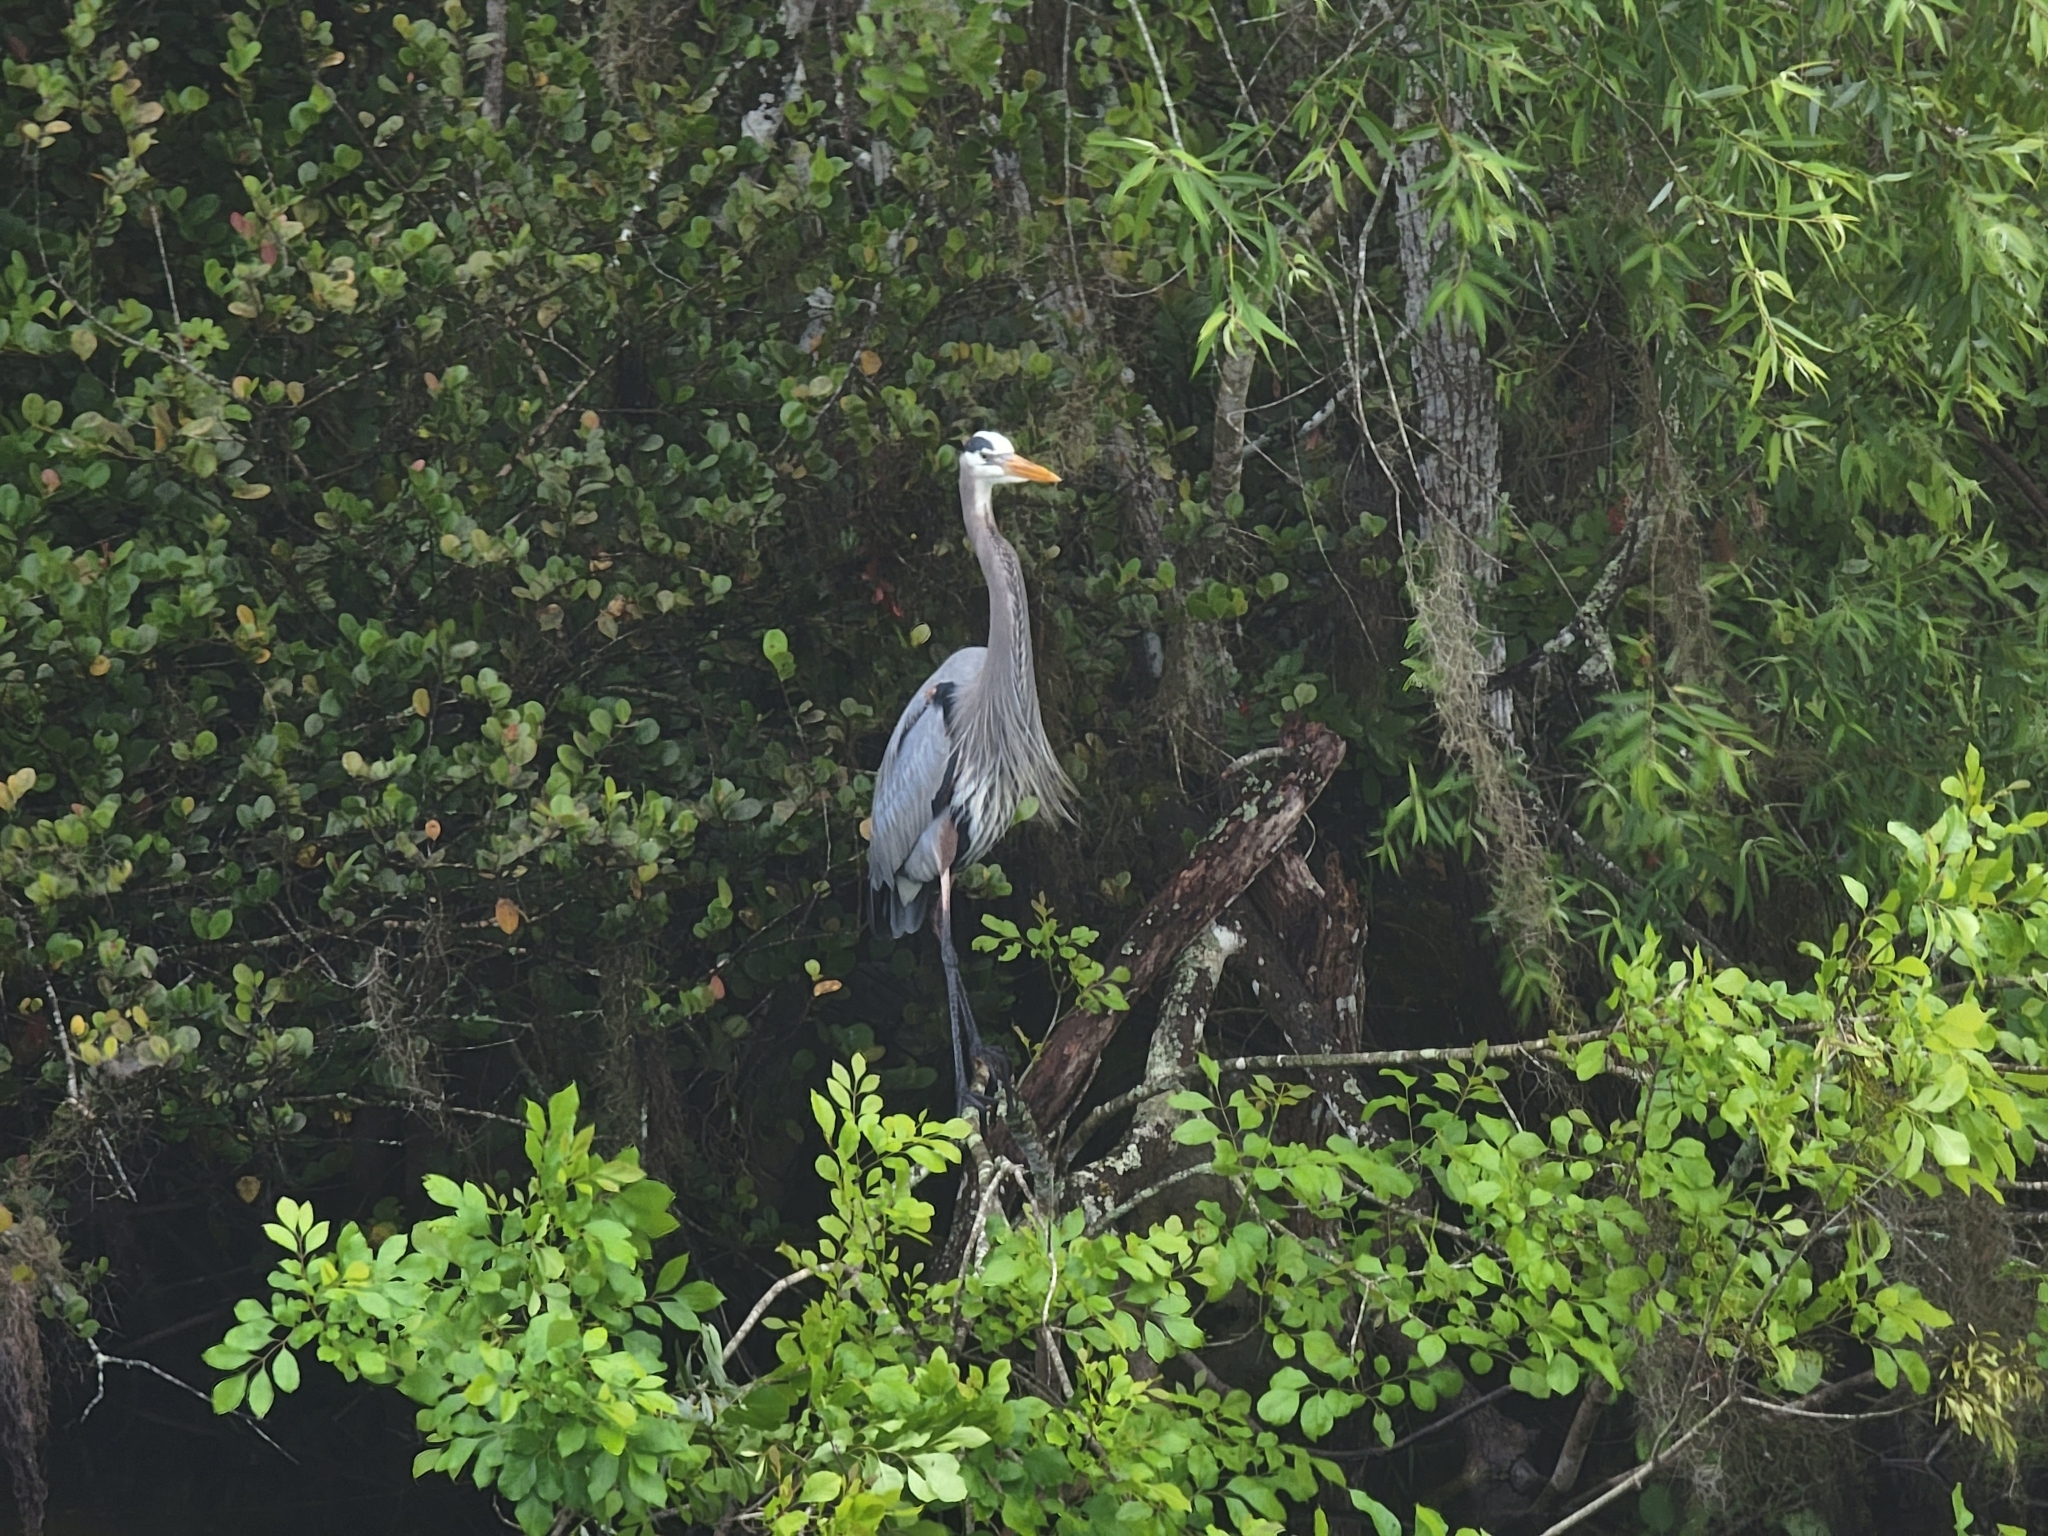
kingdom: Animalia
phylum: Chordata
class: Aves
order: Pelecaniformes
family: Ardeidae
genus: Ardea
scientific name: Ardea herodias
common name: Great blue heron
